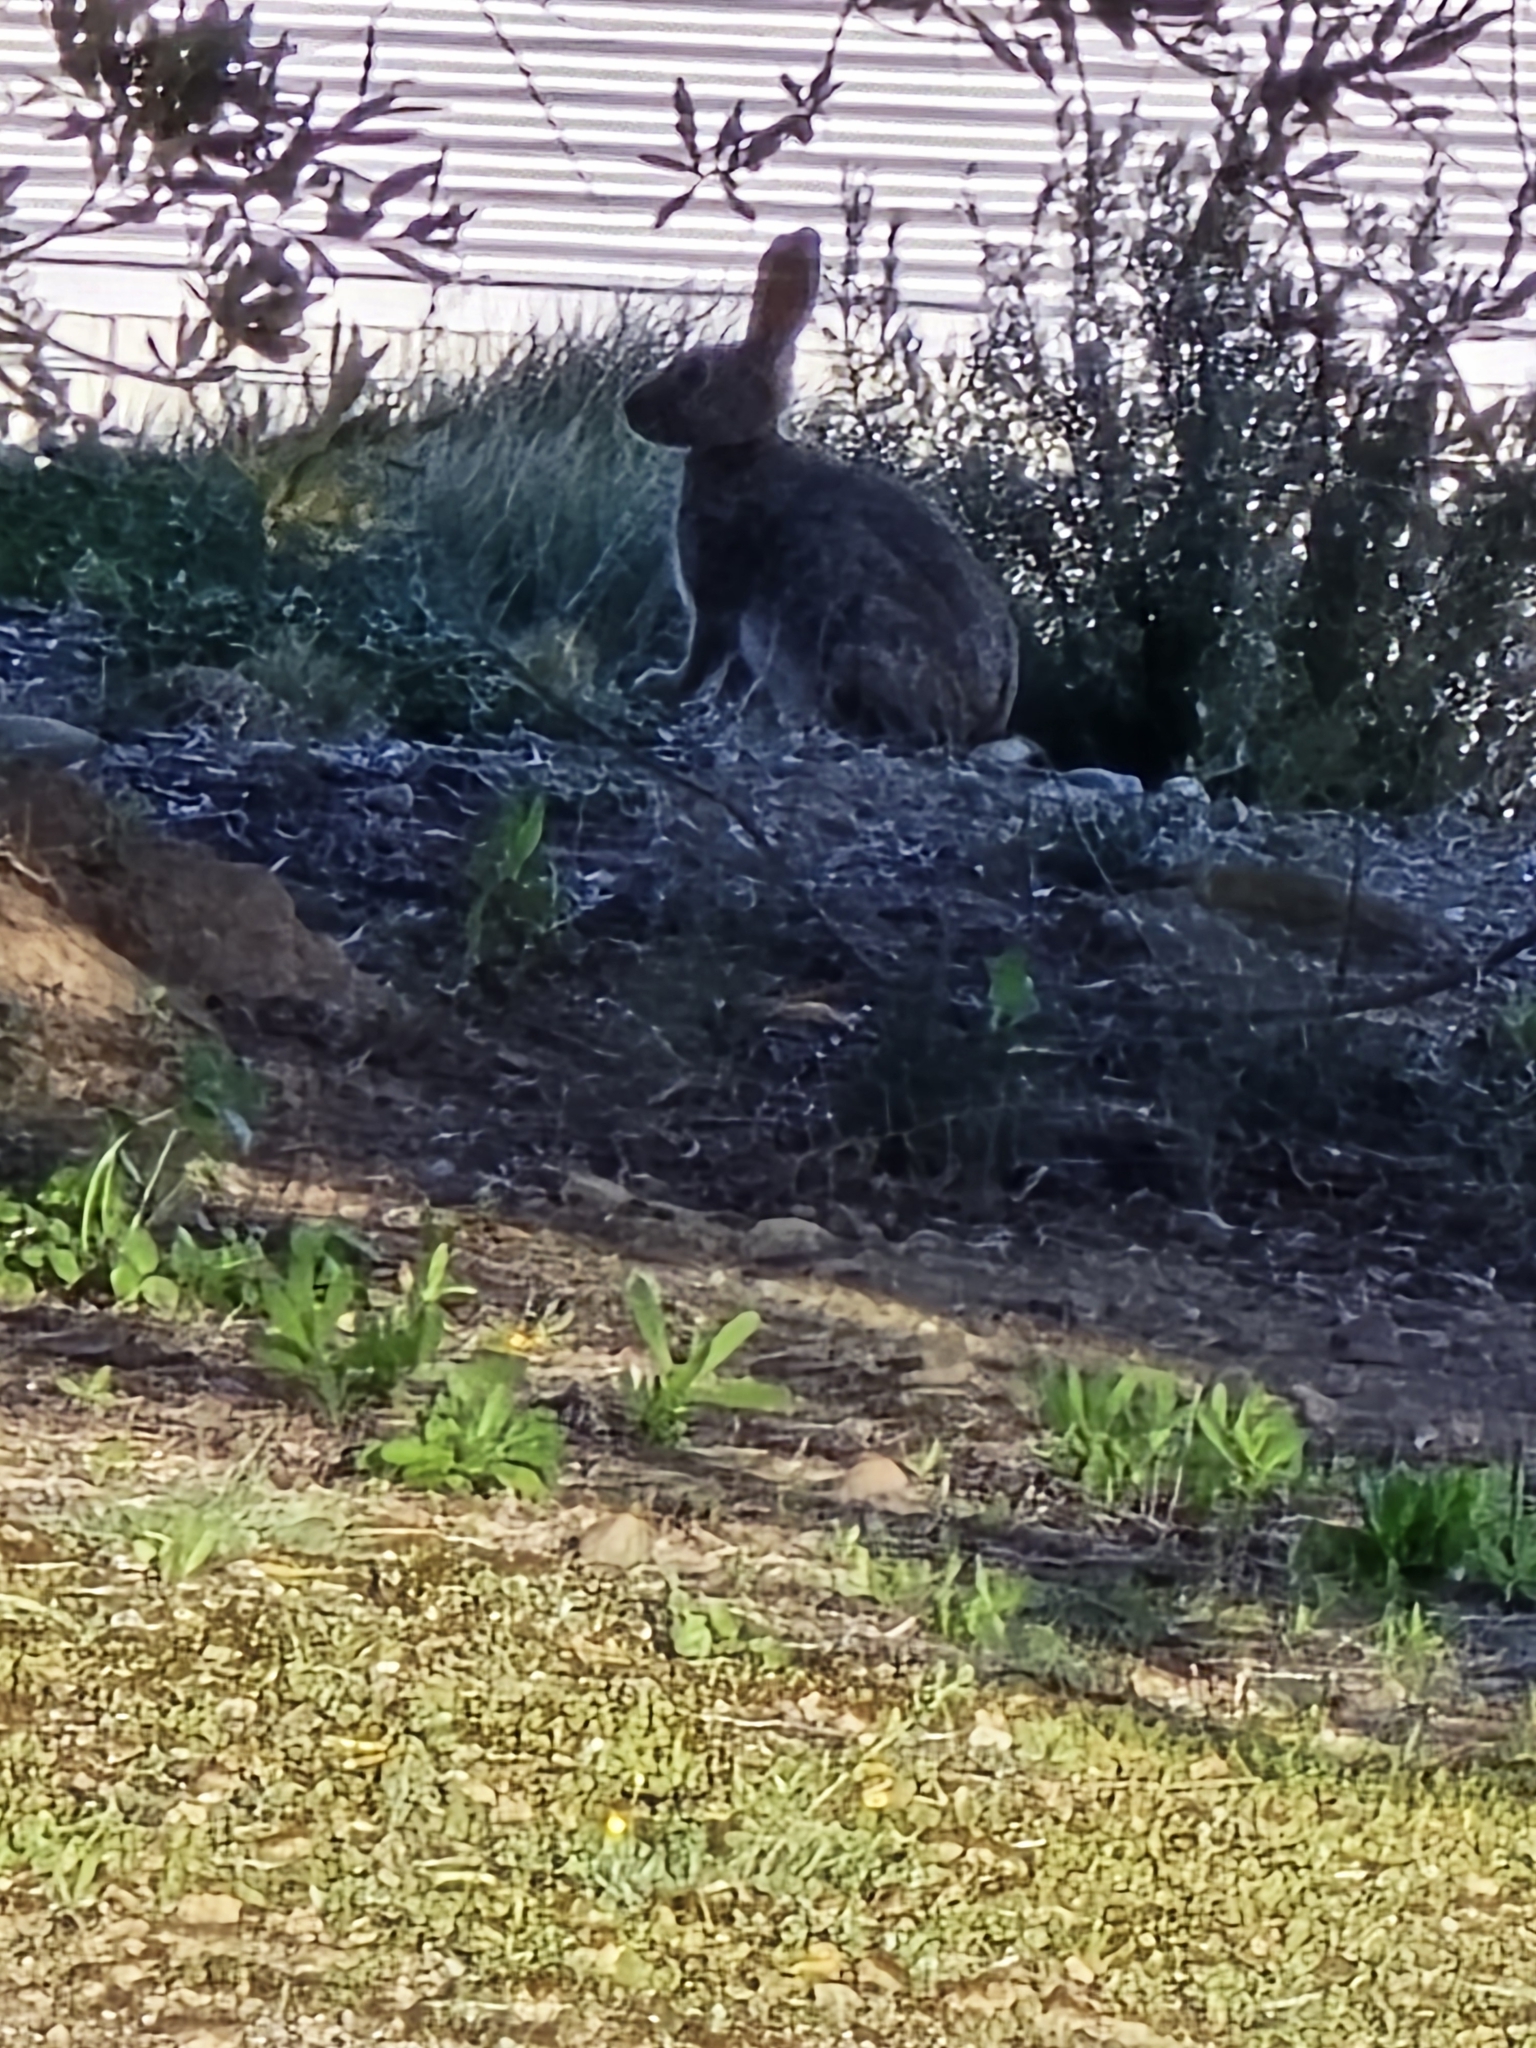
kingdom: Animalia
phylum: Chordata
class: Mammalia
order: Lagomorpha
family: Leporidae
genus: Oryctolagus
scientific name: Oryctolagus cuniculus
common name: European rabbit
